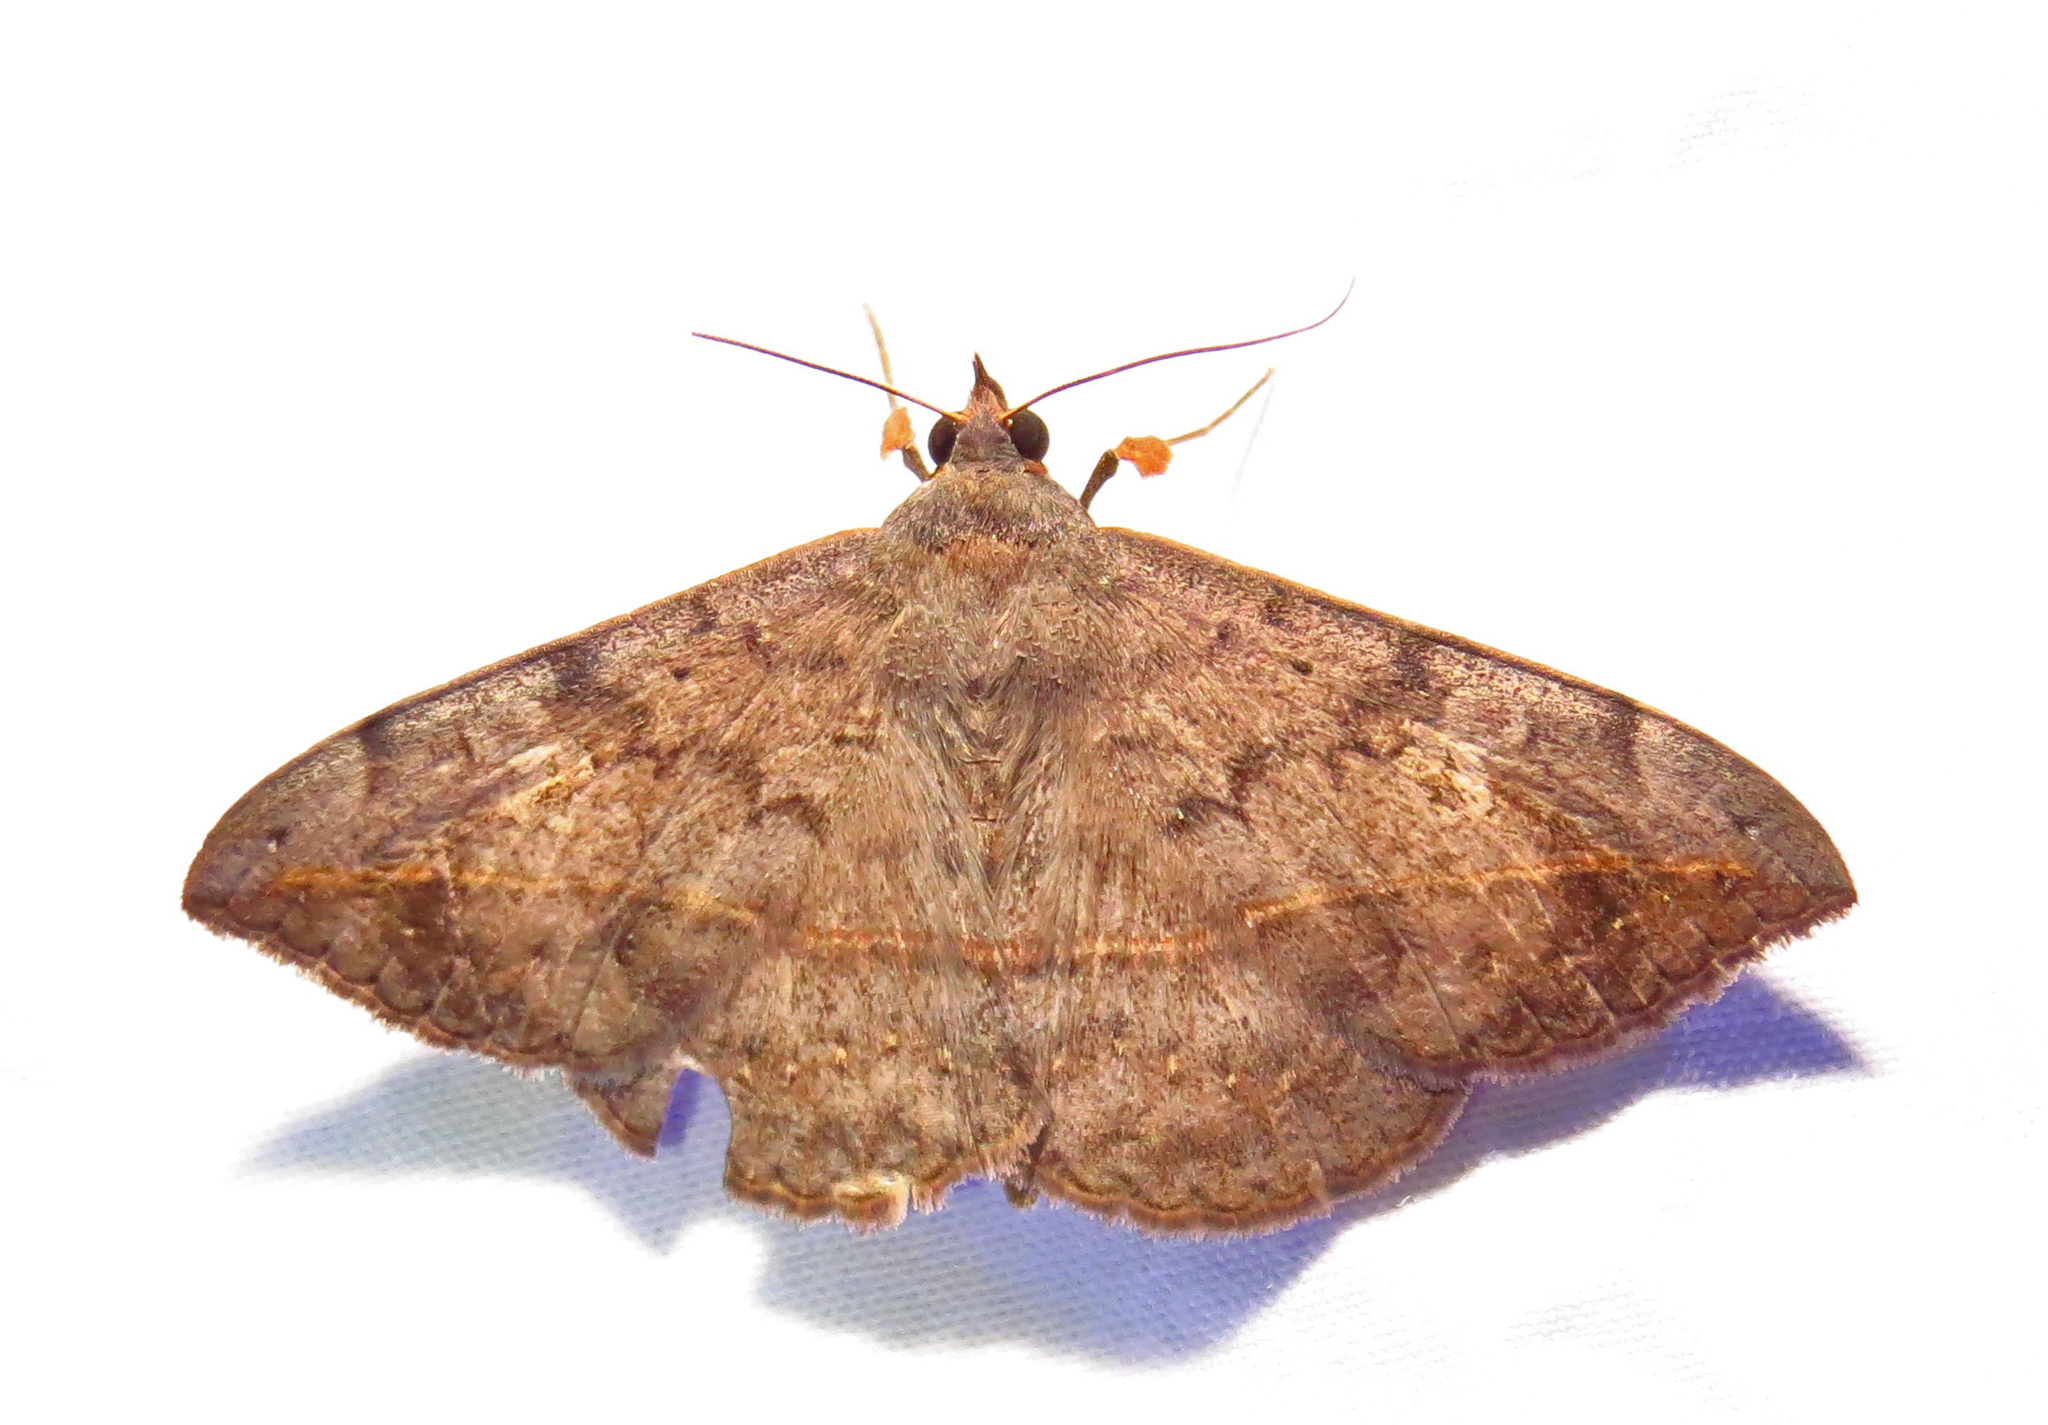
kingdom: Animalia
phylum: Arthropoda
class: Insecta
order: Lepidoptera
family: Erebidae
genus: Anticarsia
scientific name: Anticarsia gemmatalis
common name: Cutworm moth
